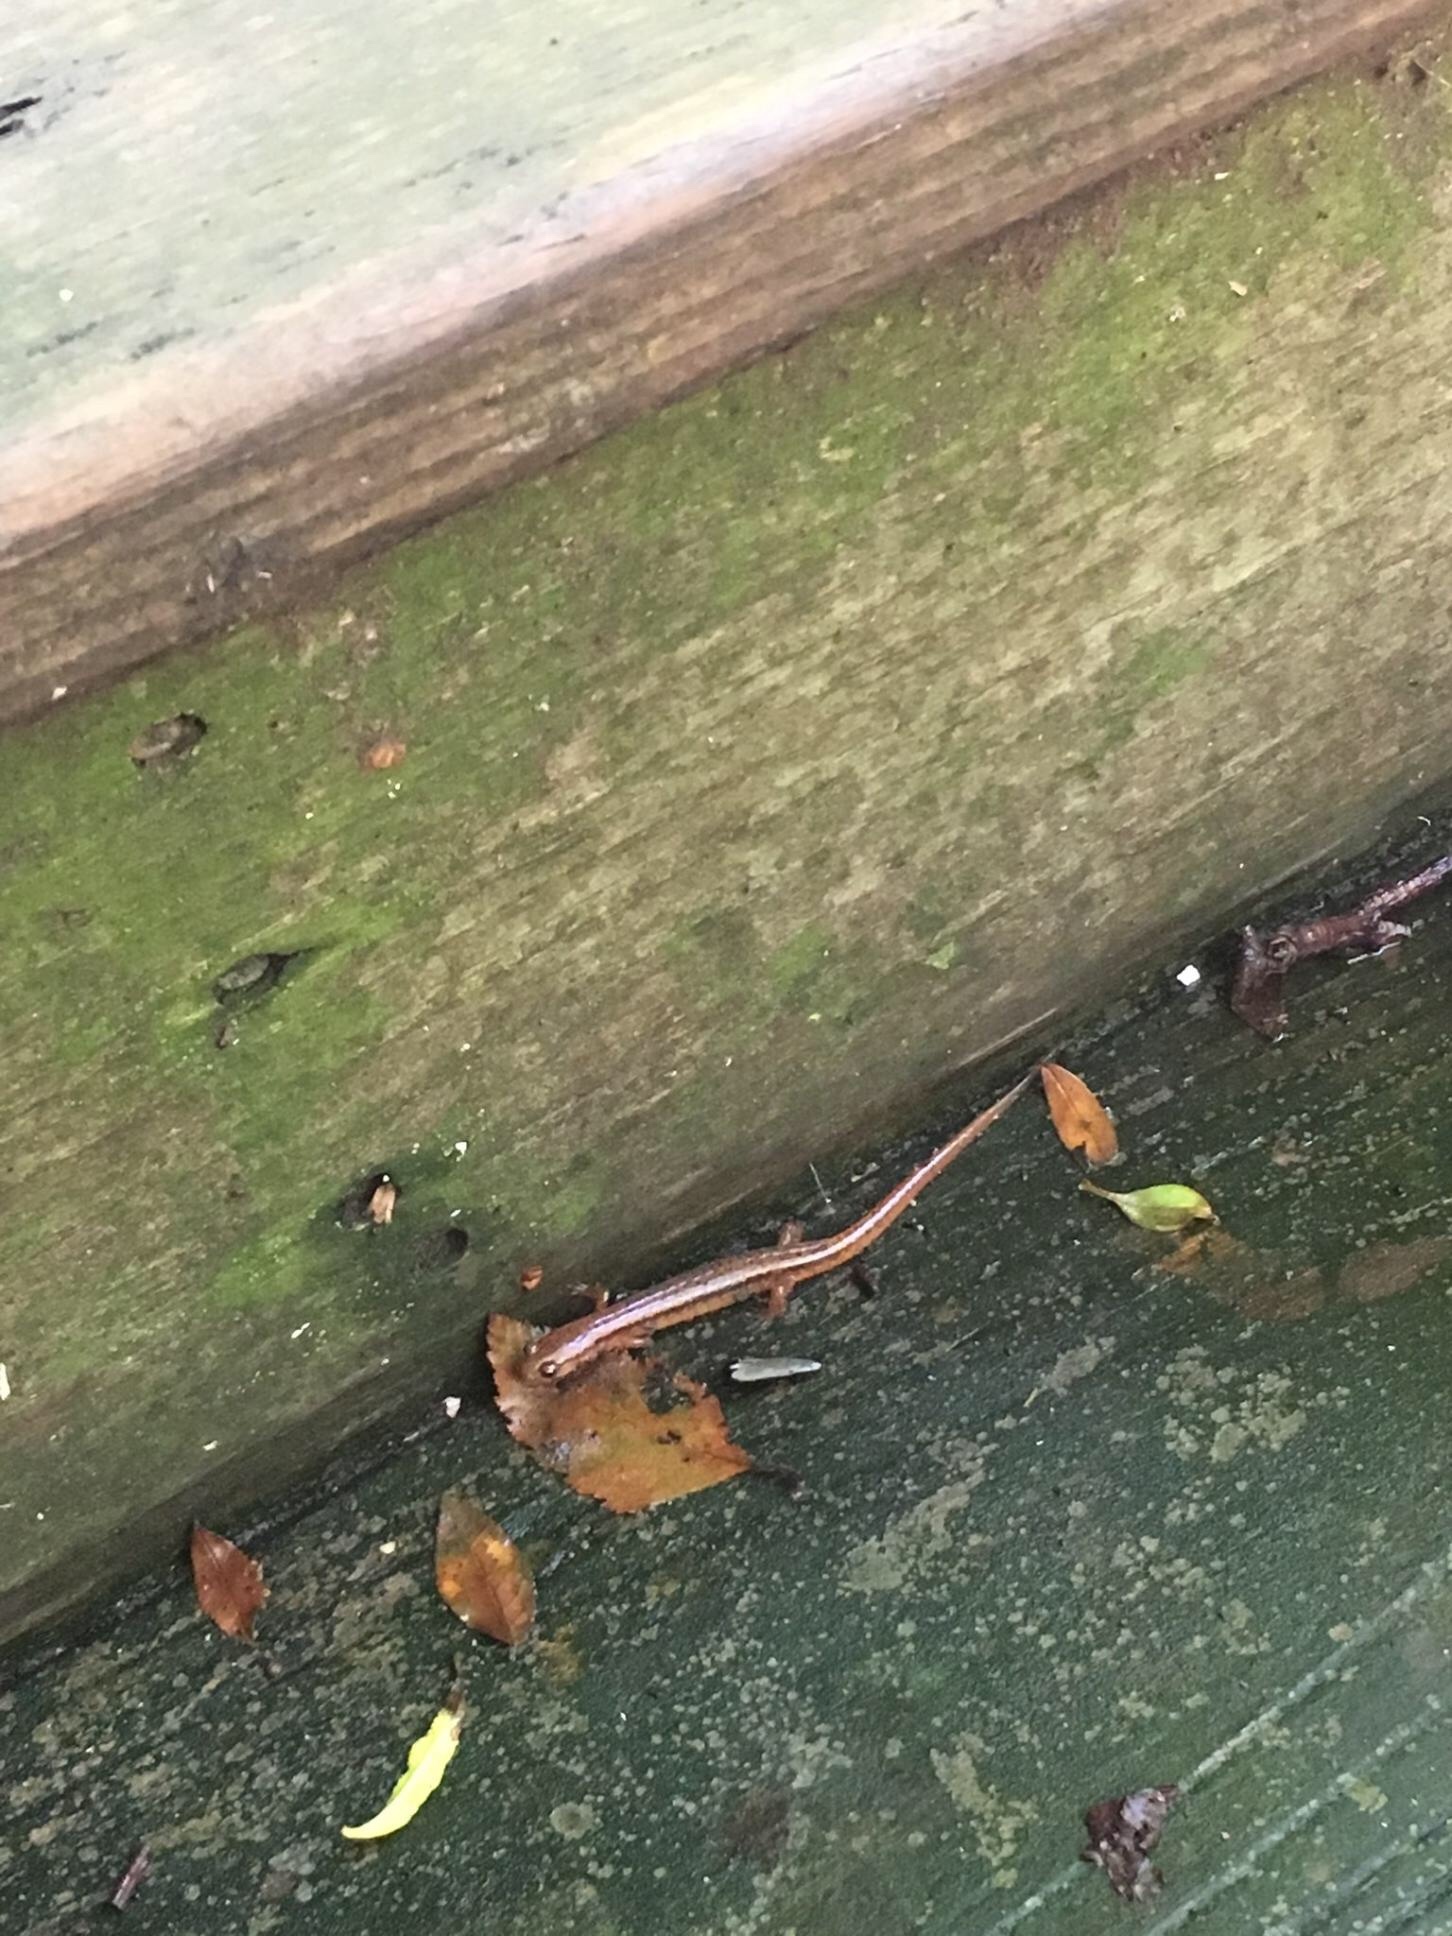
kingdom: Animalia
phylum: Chordata
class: Amphibia
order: Caudata
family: Plethodontidae
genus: Eurycea
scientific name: Eurycea cirrigera
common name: Southern two-lined salamander
